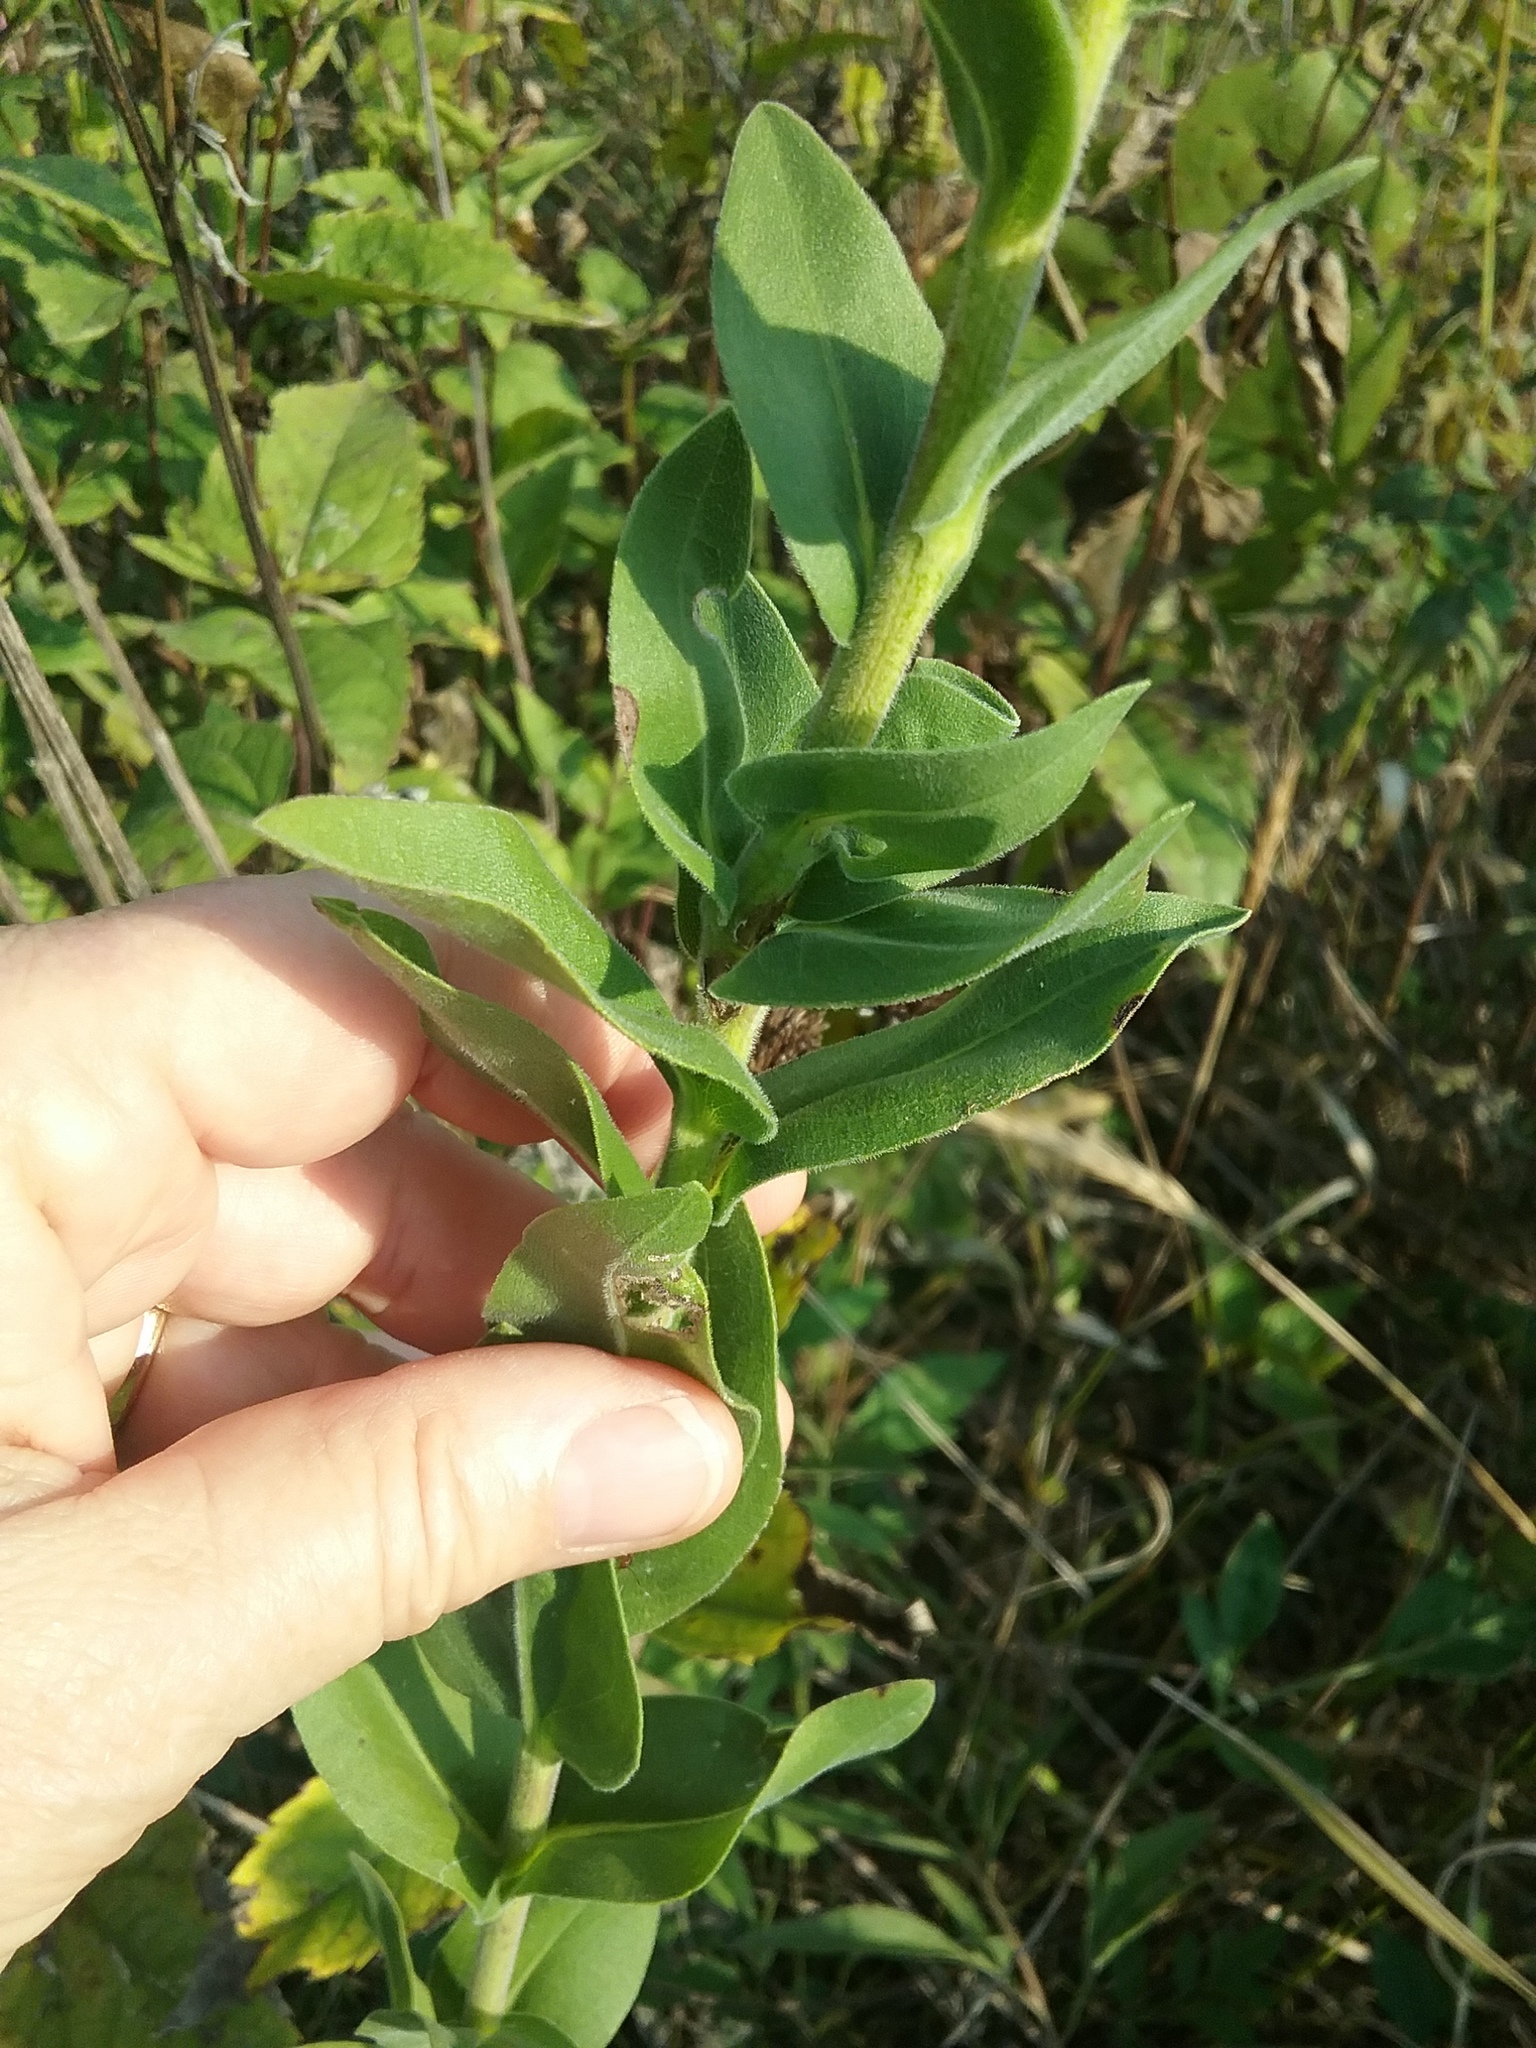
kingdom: Plantae
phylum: Tracheophyta
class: Magnoliopsida
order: Asterales
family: Asteraceae
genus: Solidago
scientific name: Solidago rigida
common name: Rigid goldenrod
